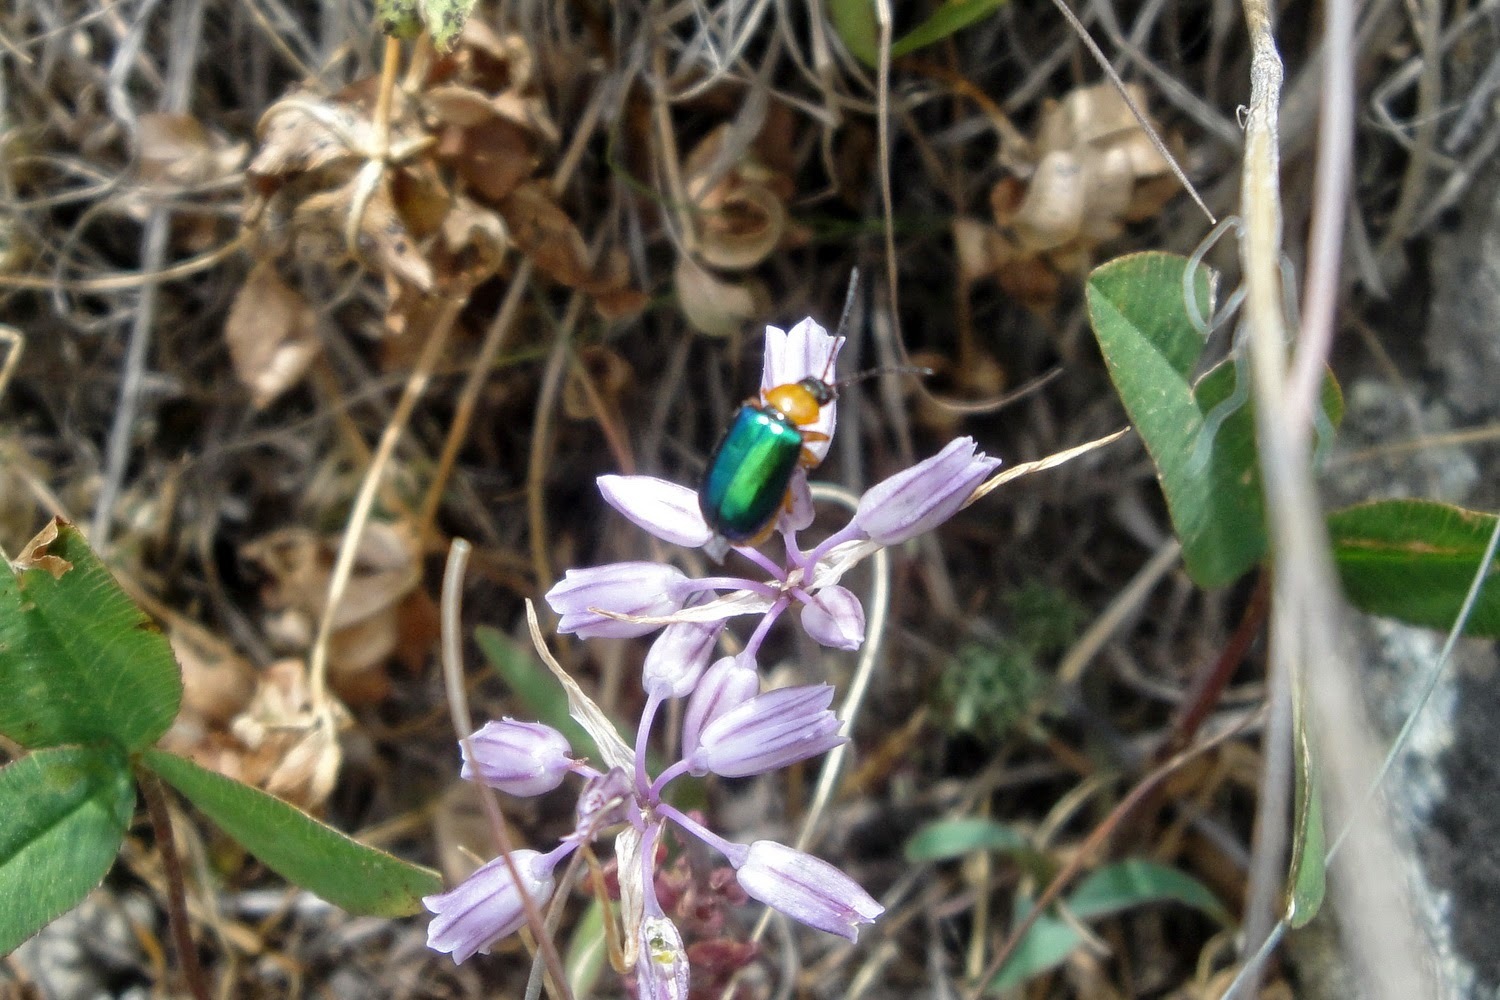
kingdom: Animalia
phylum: Arthropoda
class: Insecta
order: Coleoptera
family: Chrysomelidae
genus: Exosoma
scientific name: Exosoma
